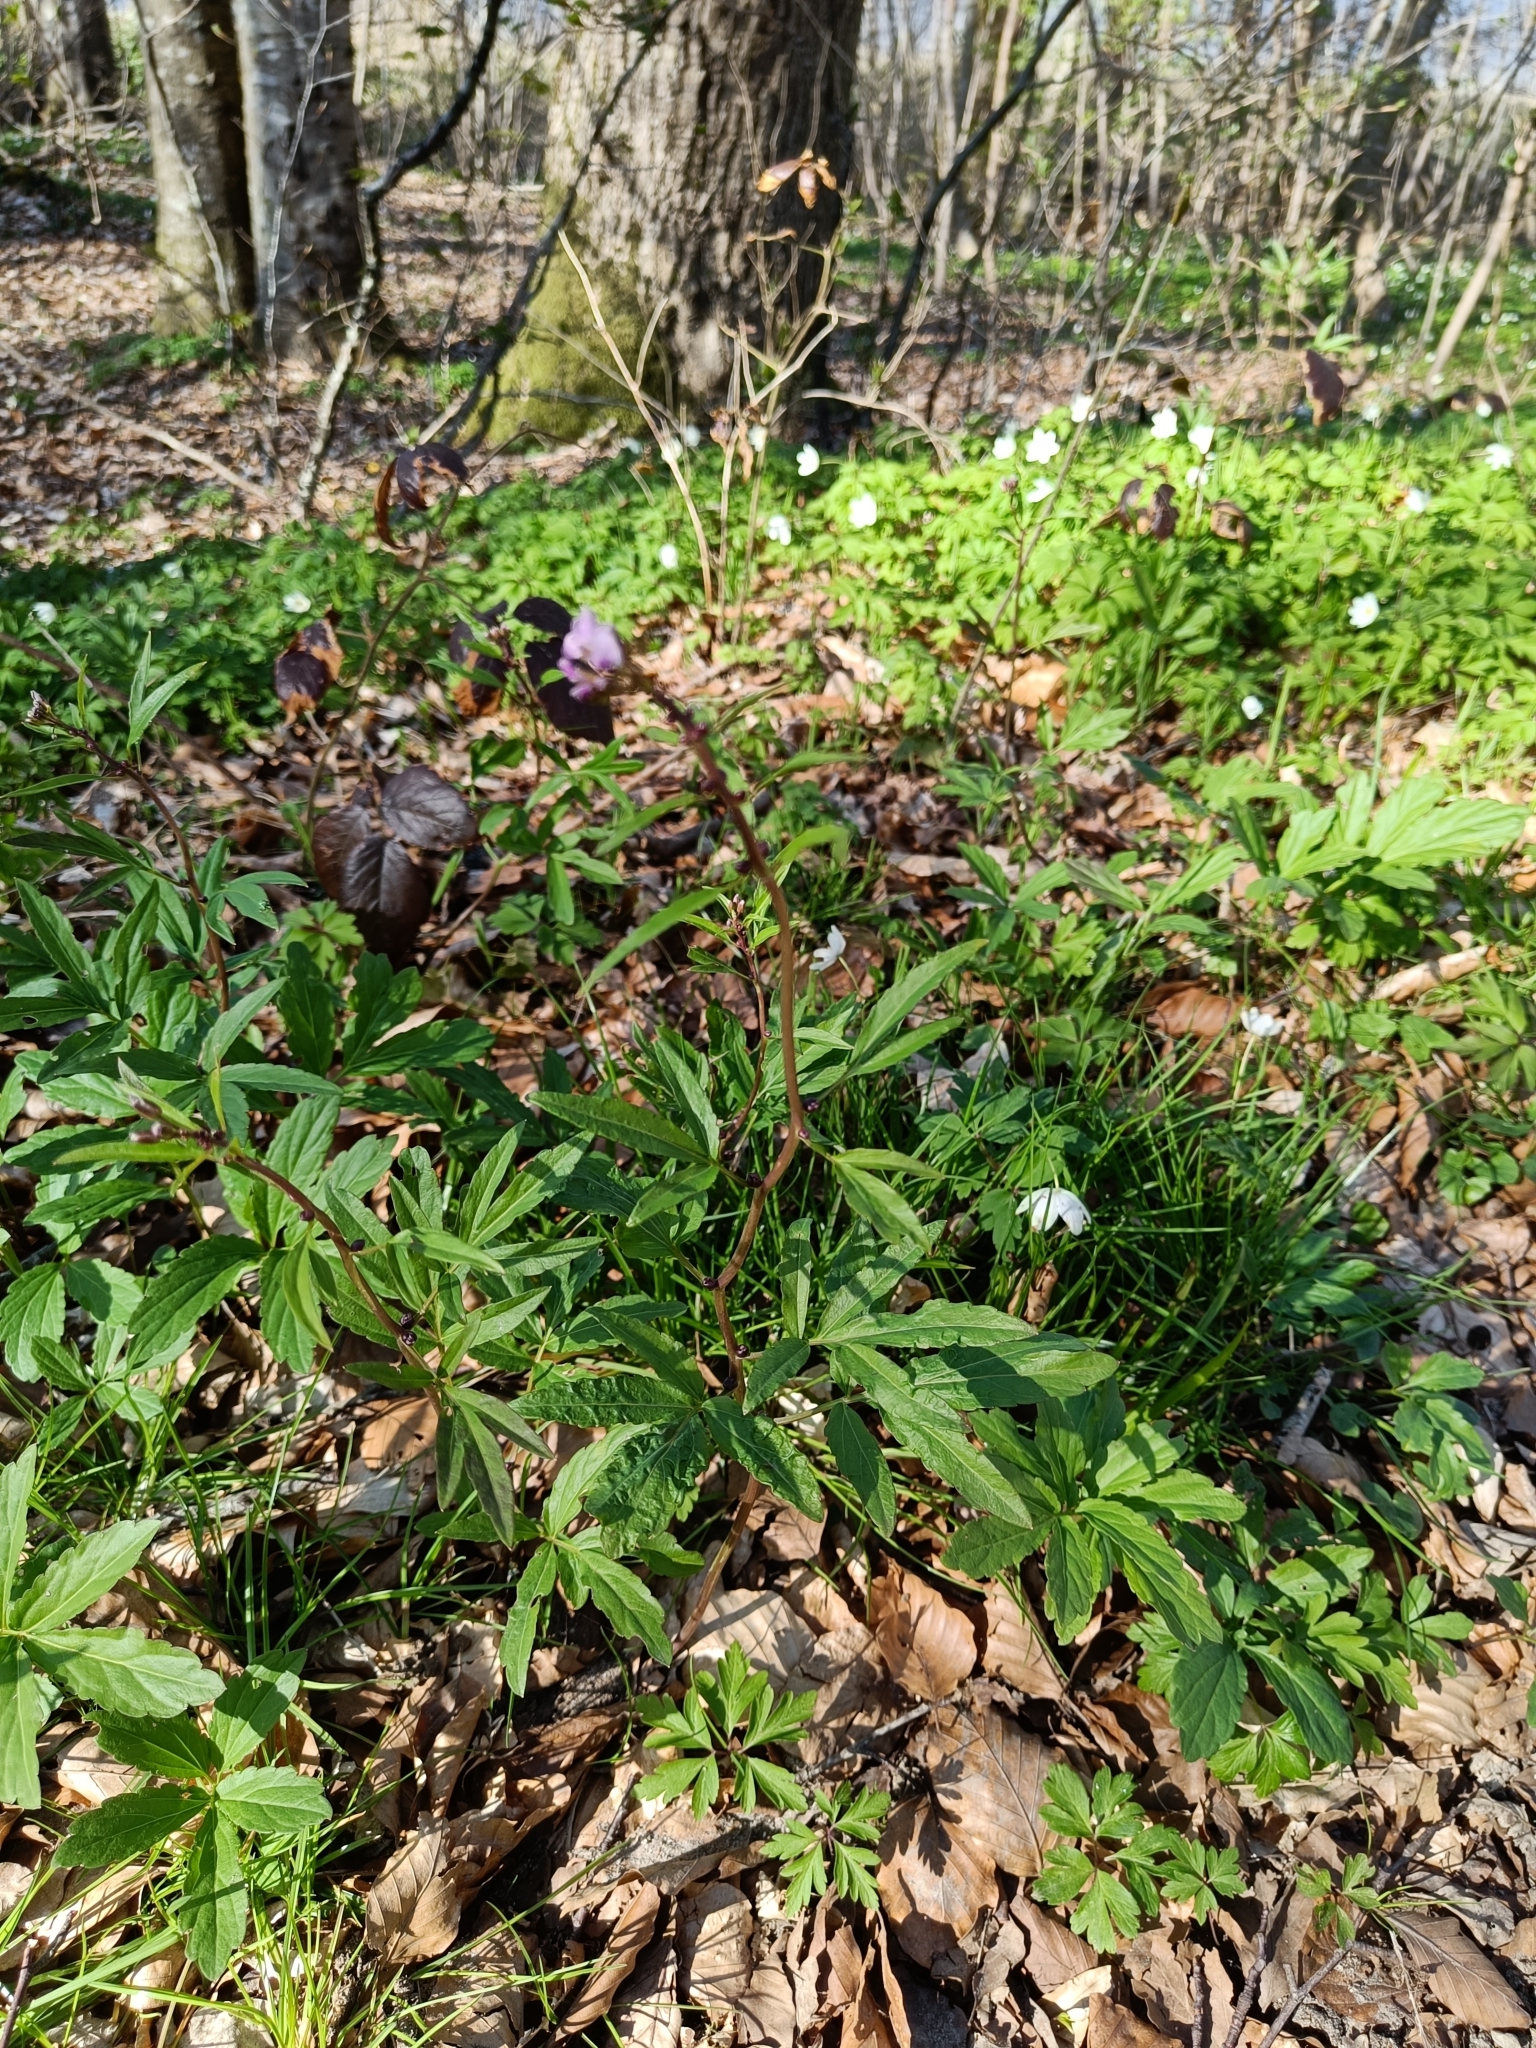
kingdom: Plantae
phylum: Tracheophyta
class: Magnoliopsida
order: Brassicales
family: Brassicaceae
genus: Cardamine
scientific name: Cardamine bulbifera
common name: Coralroot bittercress
